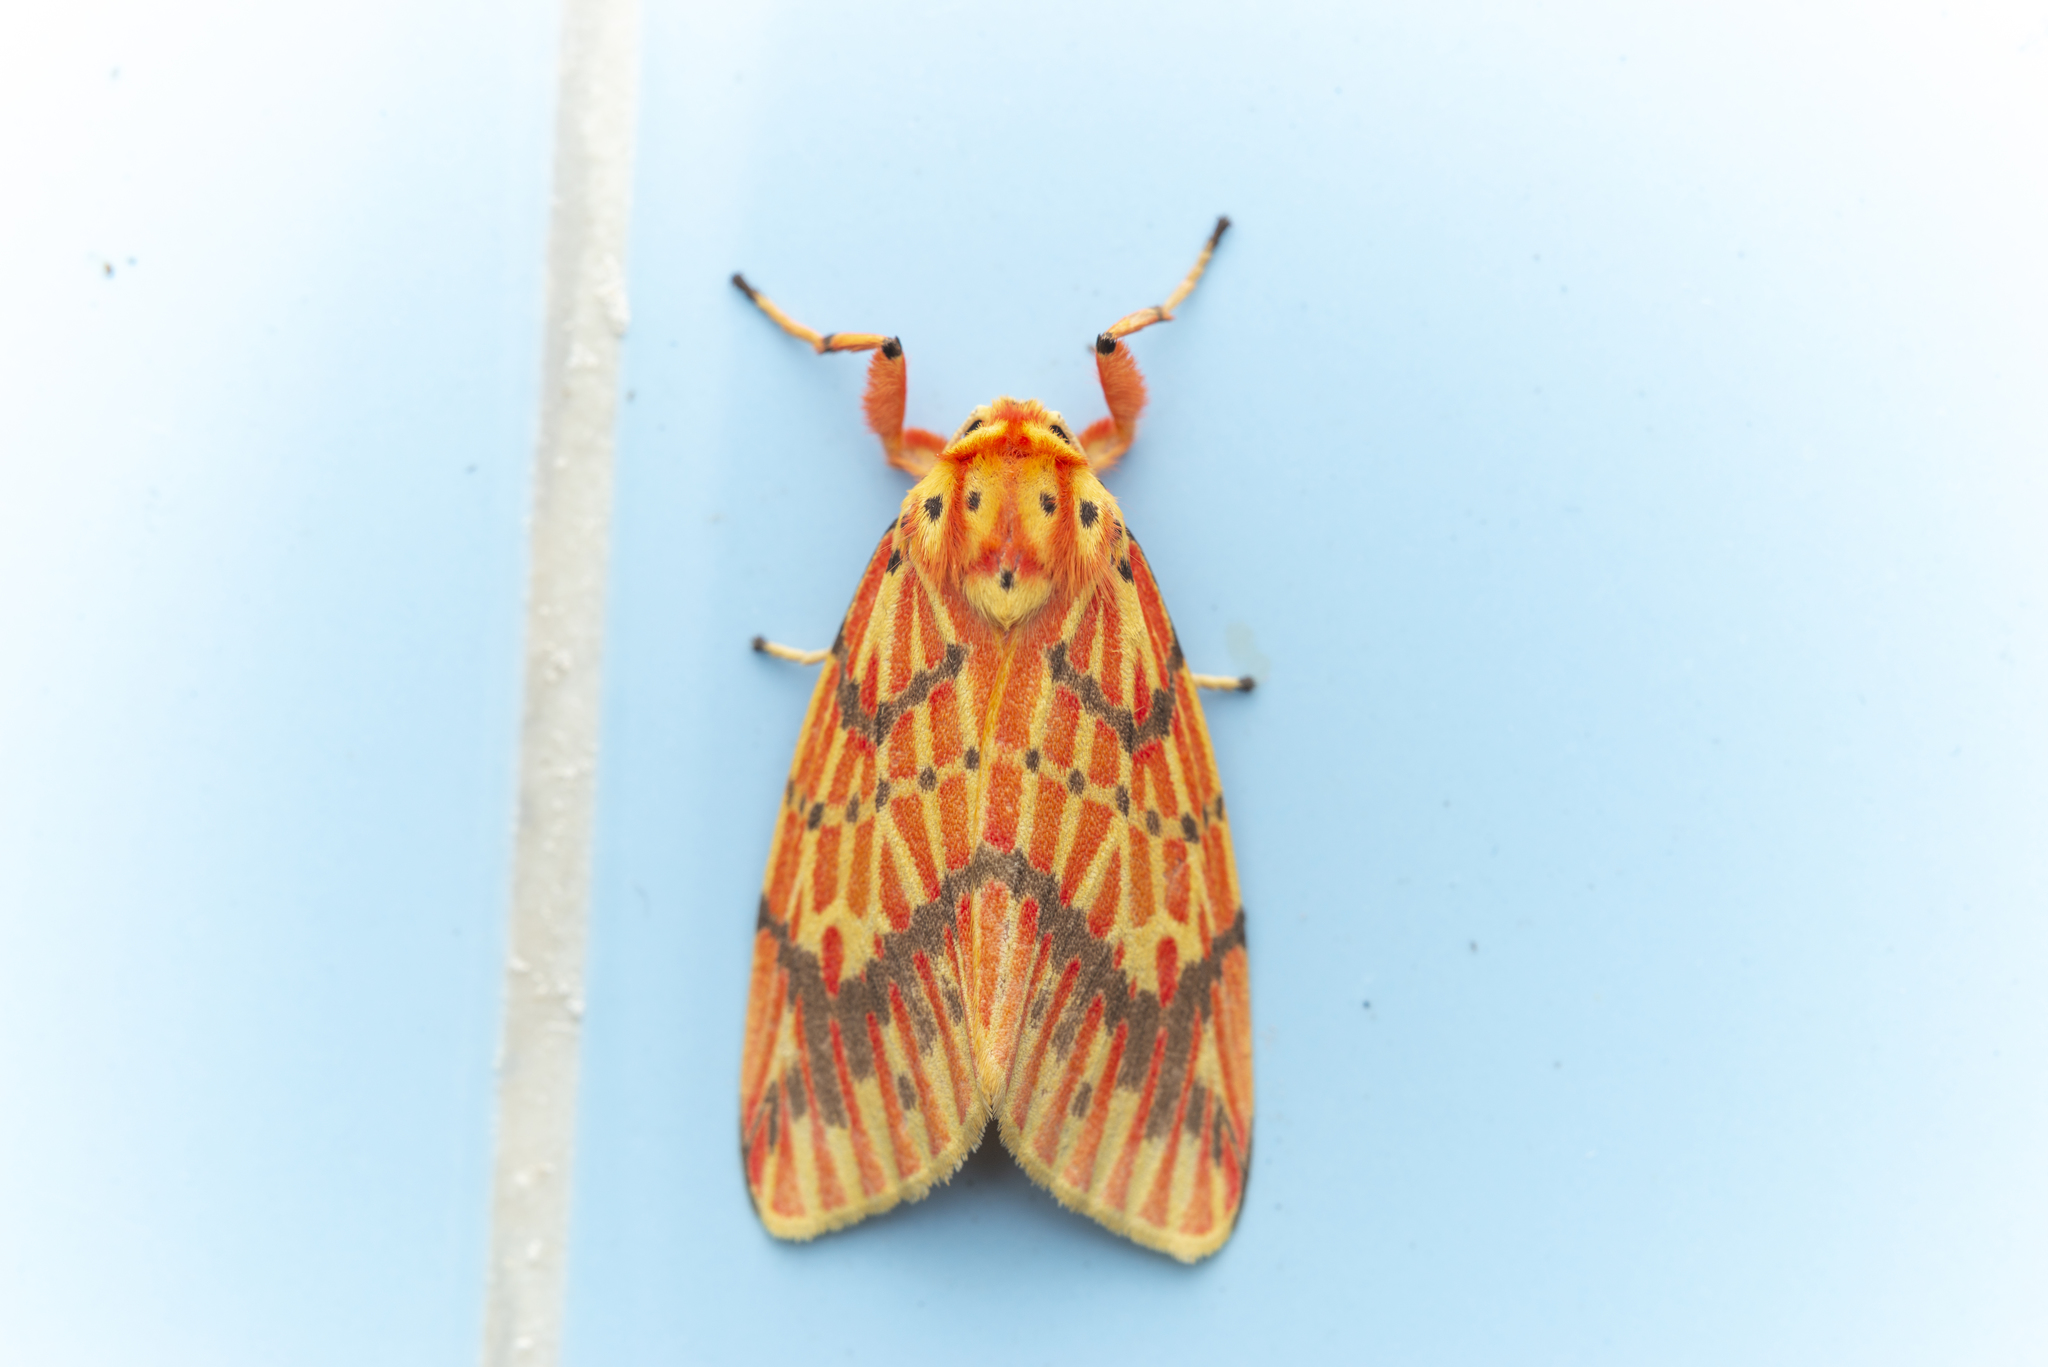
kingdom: Animalia
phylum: Arthropoda
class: Insecta
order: Lepidoptera
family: Erebidae
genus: Barsine
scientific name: Barsine striata
